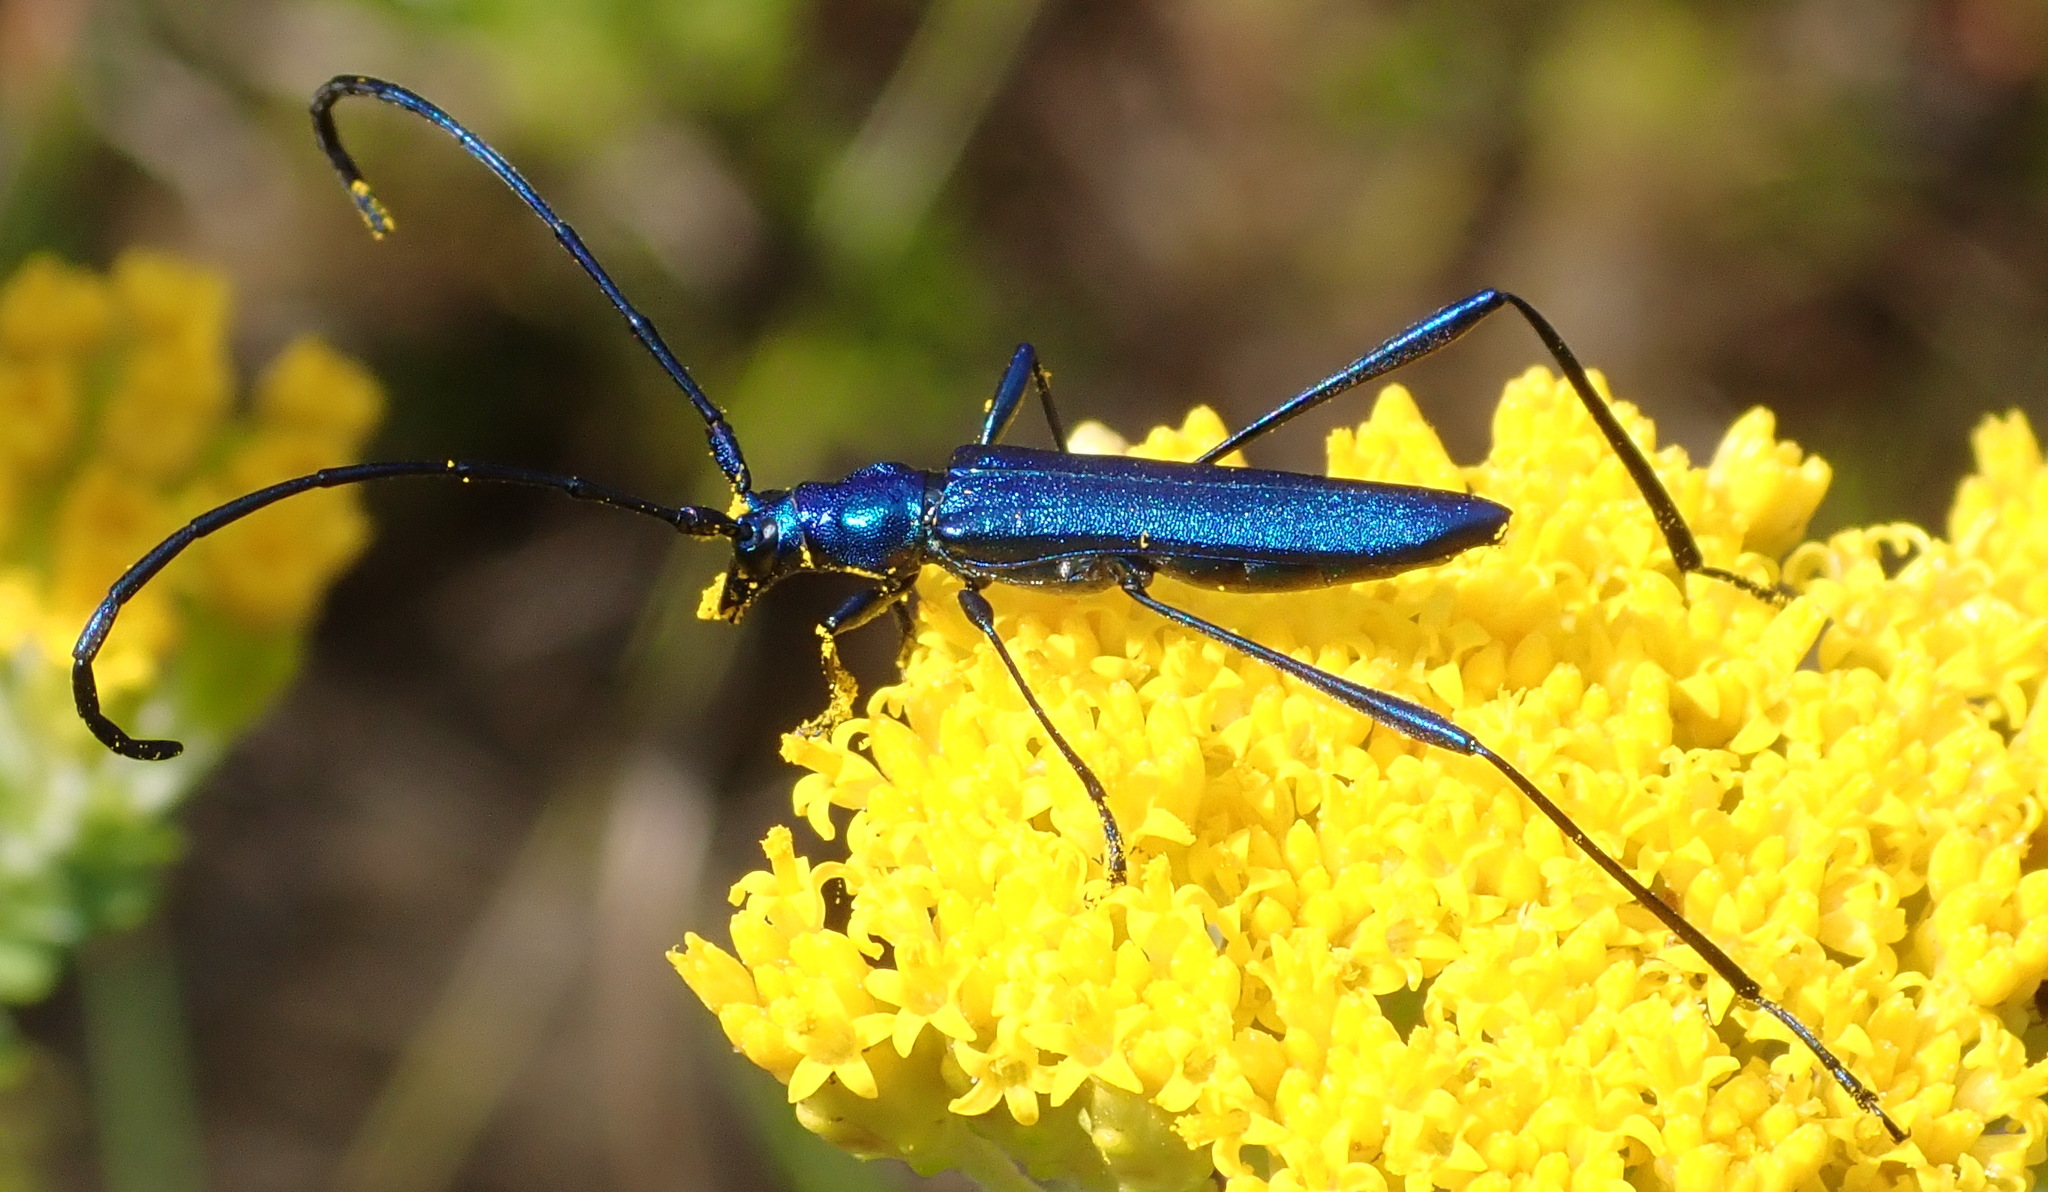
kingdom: Animalia
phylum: Arthropoda
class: Insecta
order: Coleoptera
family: Cerambycidae
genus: Promeces
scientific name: Promeces longipes
